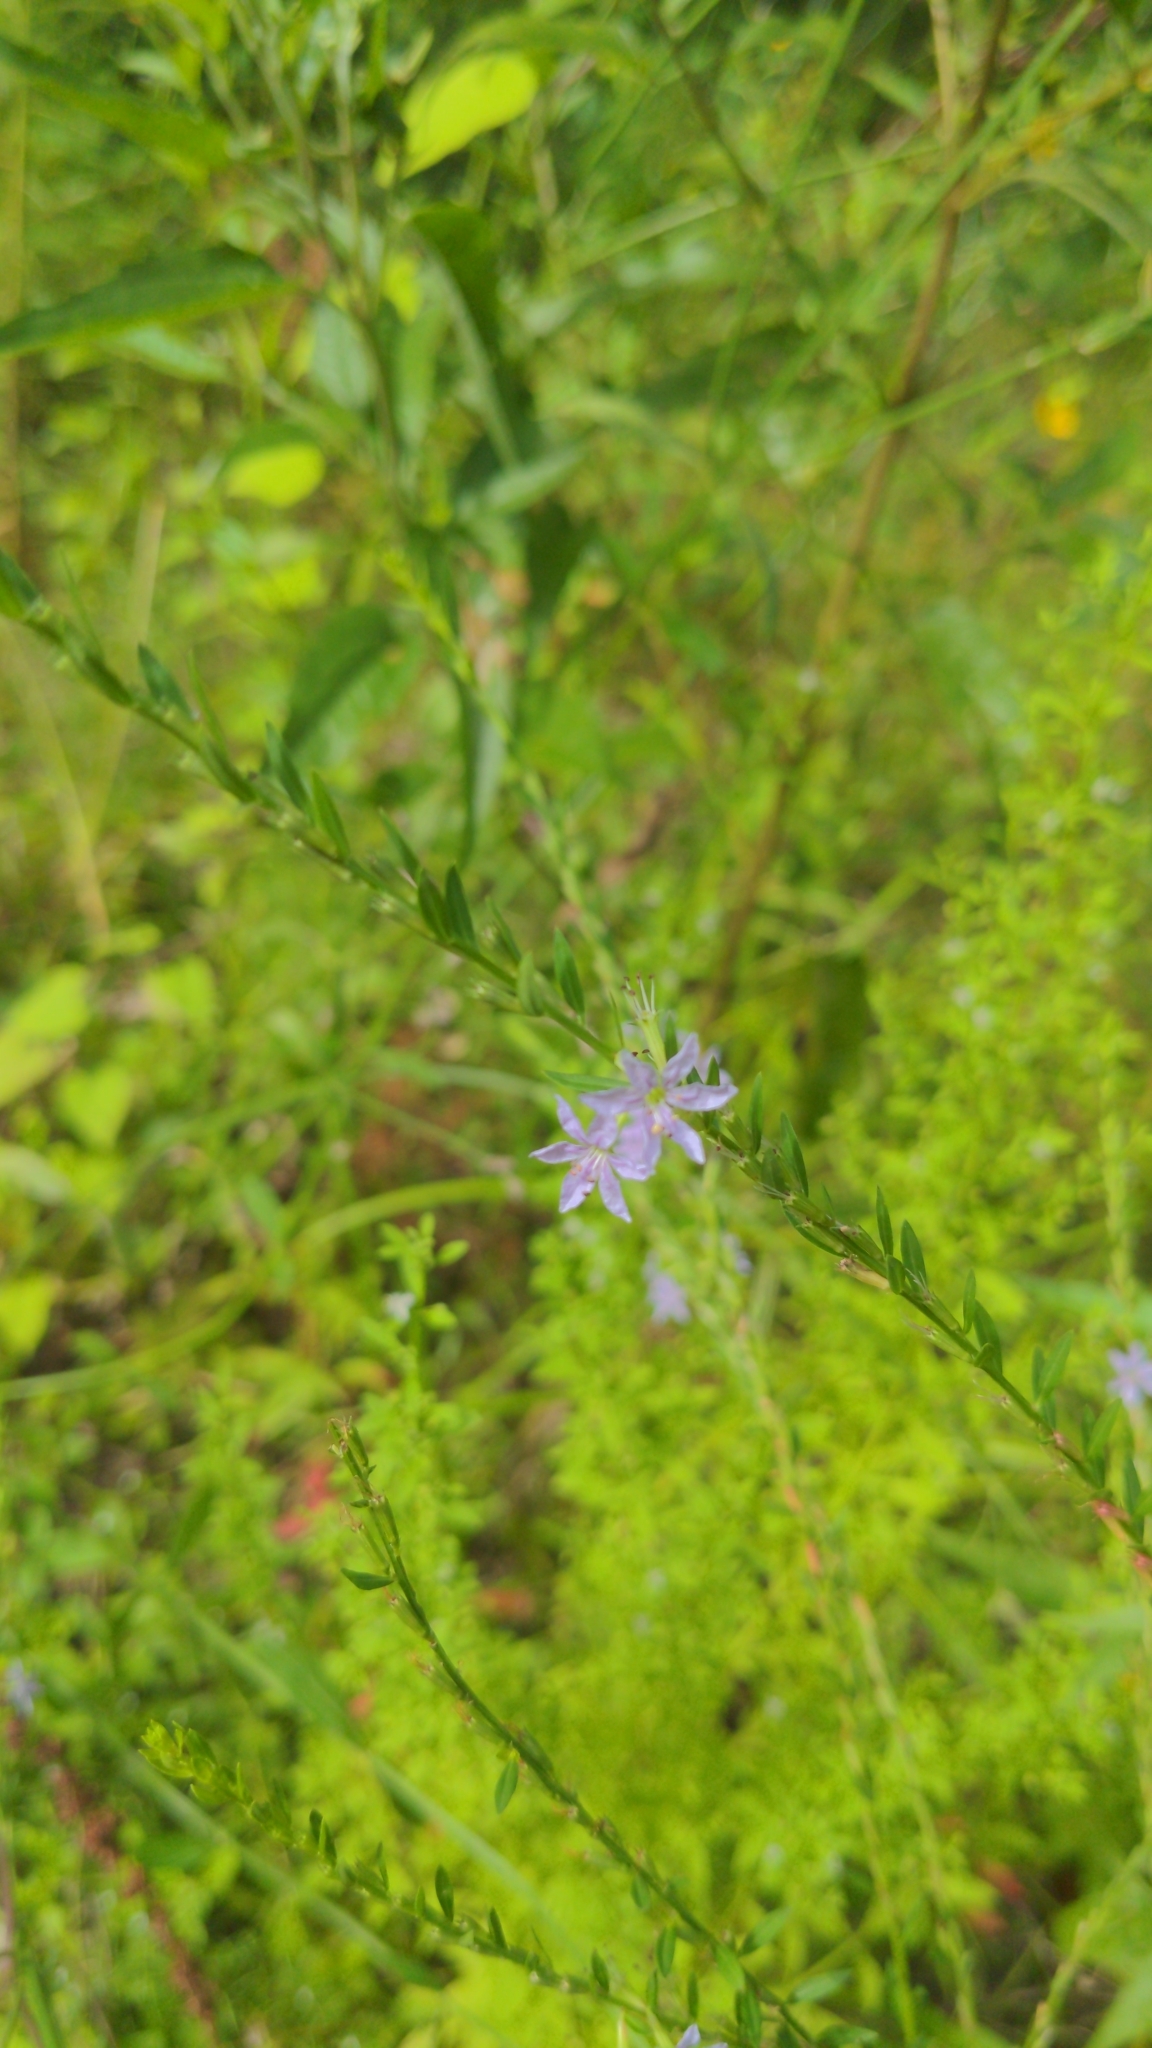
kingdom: Plantae
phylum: Tracheophyta
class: Magnoliopsida
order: Myrtales
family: Lythraceae
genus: Lythrum
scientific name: Lythrum alatum
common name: Winged loosestrife
